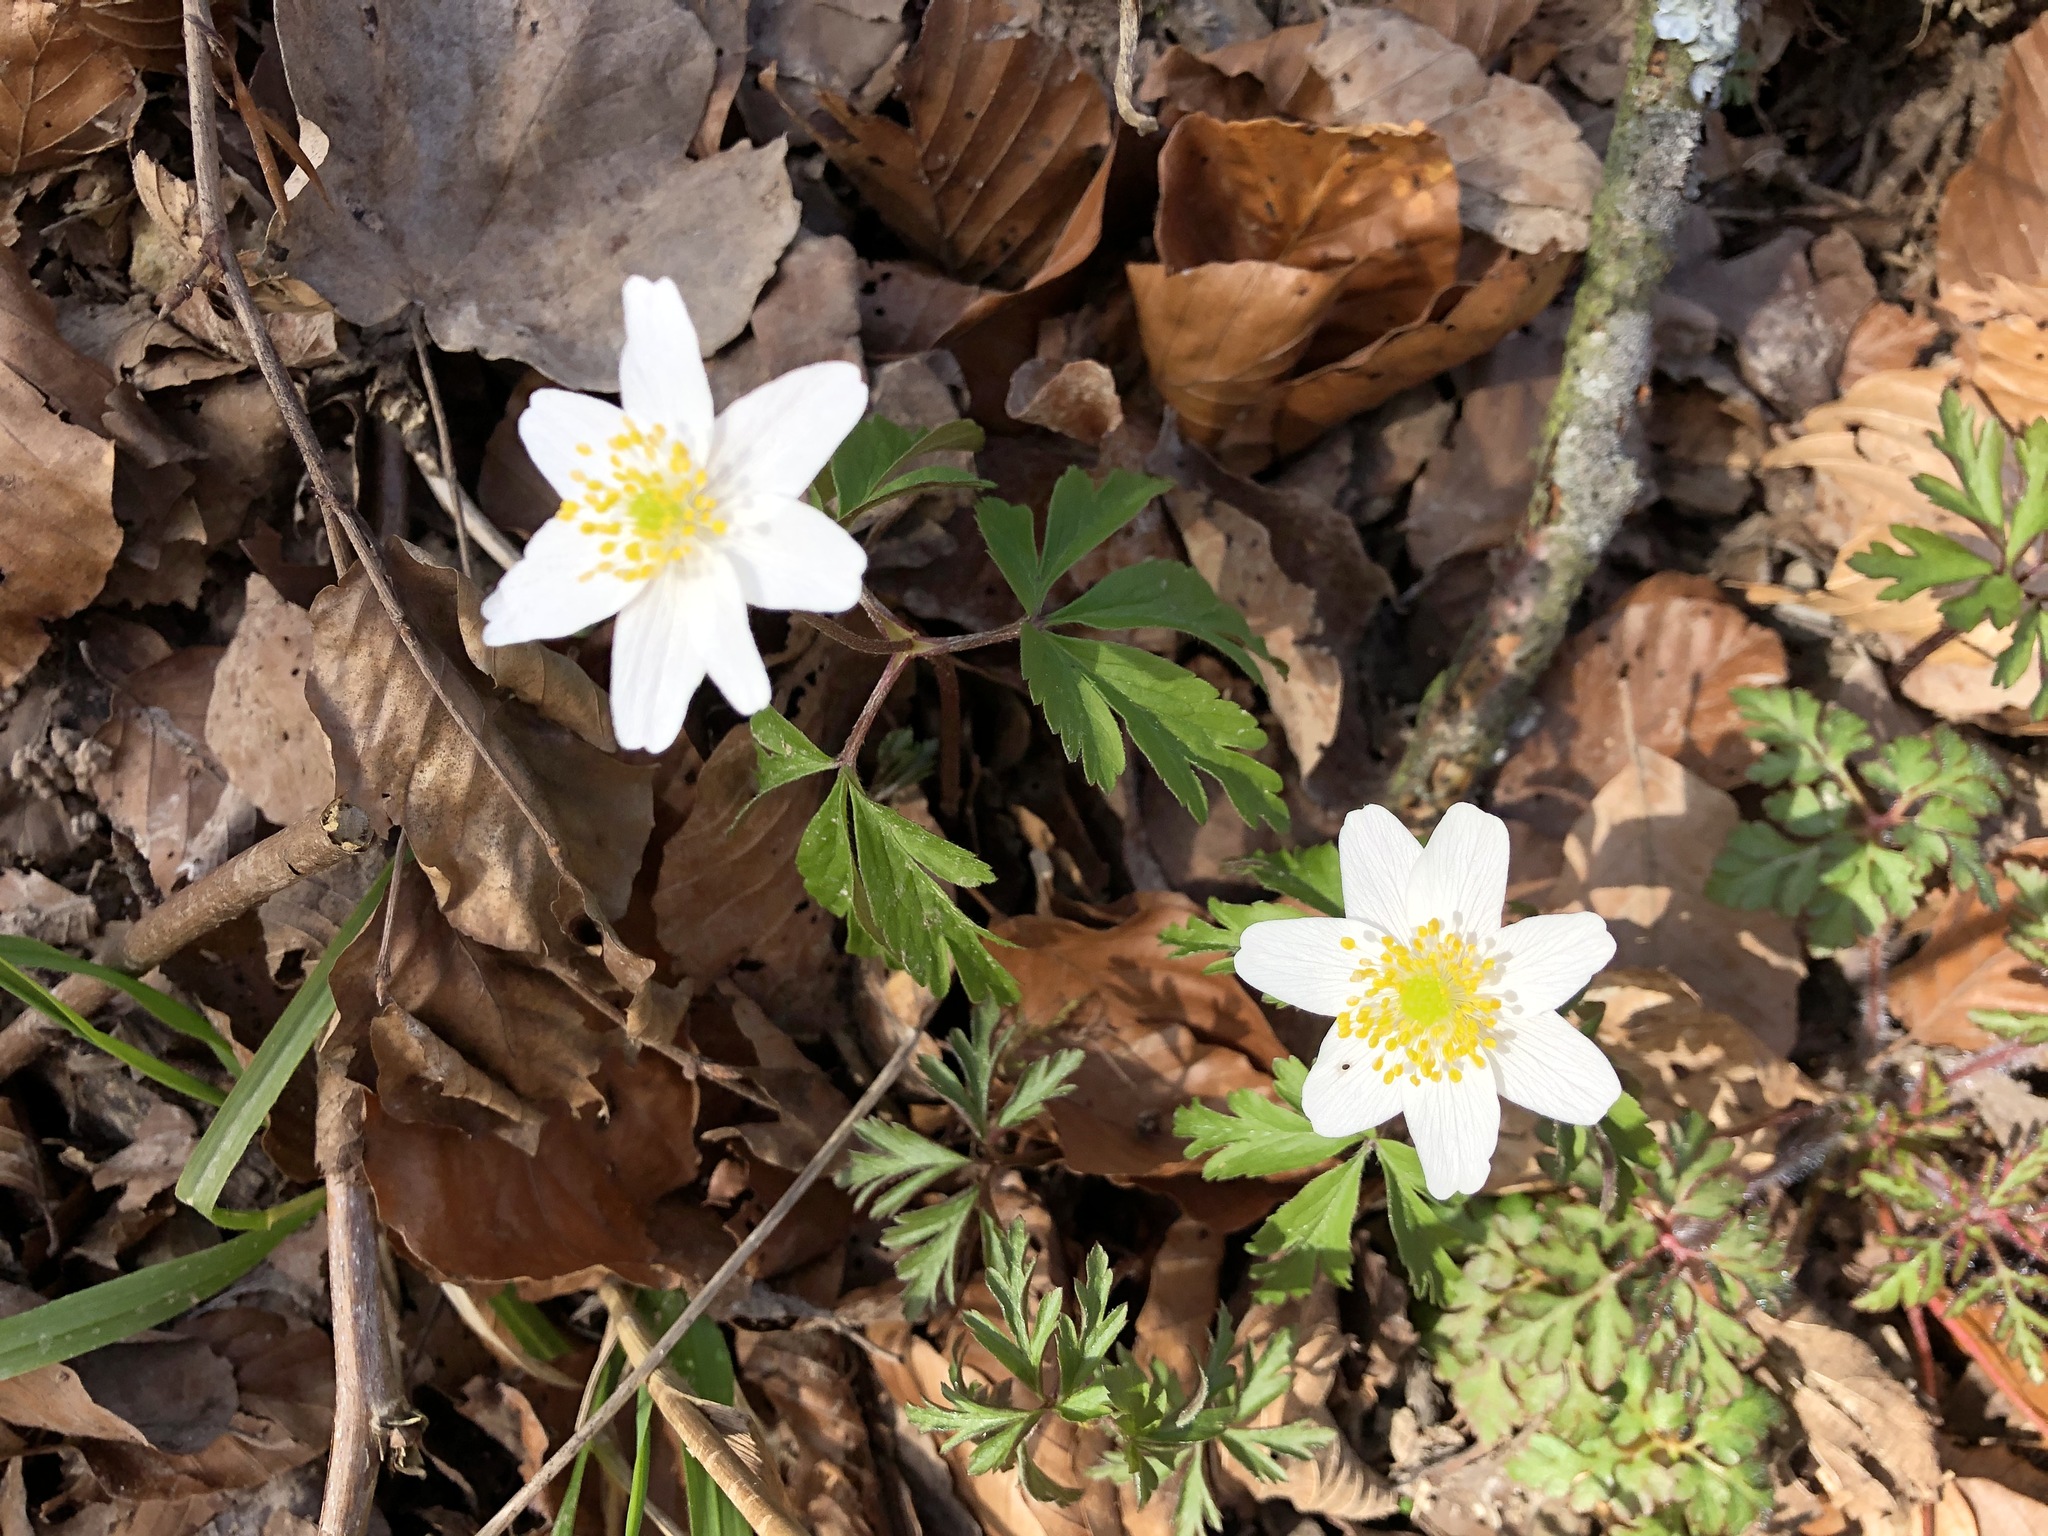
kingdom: Plantae
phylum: Tracheophyta
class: Magnoliopsida
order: Ranunculales
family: Ranunculaceae
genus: Anemone
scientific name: Anemone nemorosa
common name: Wood anemone
